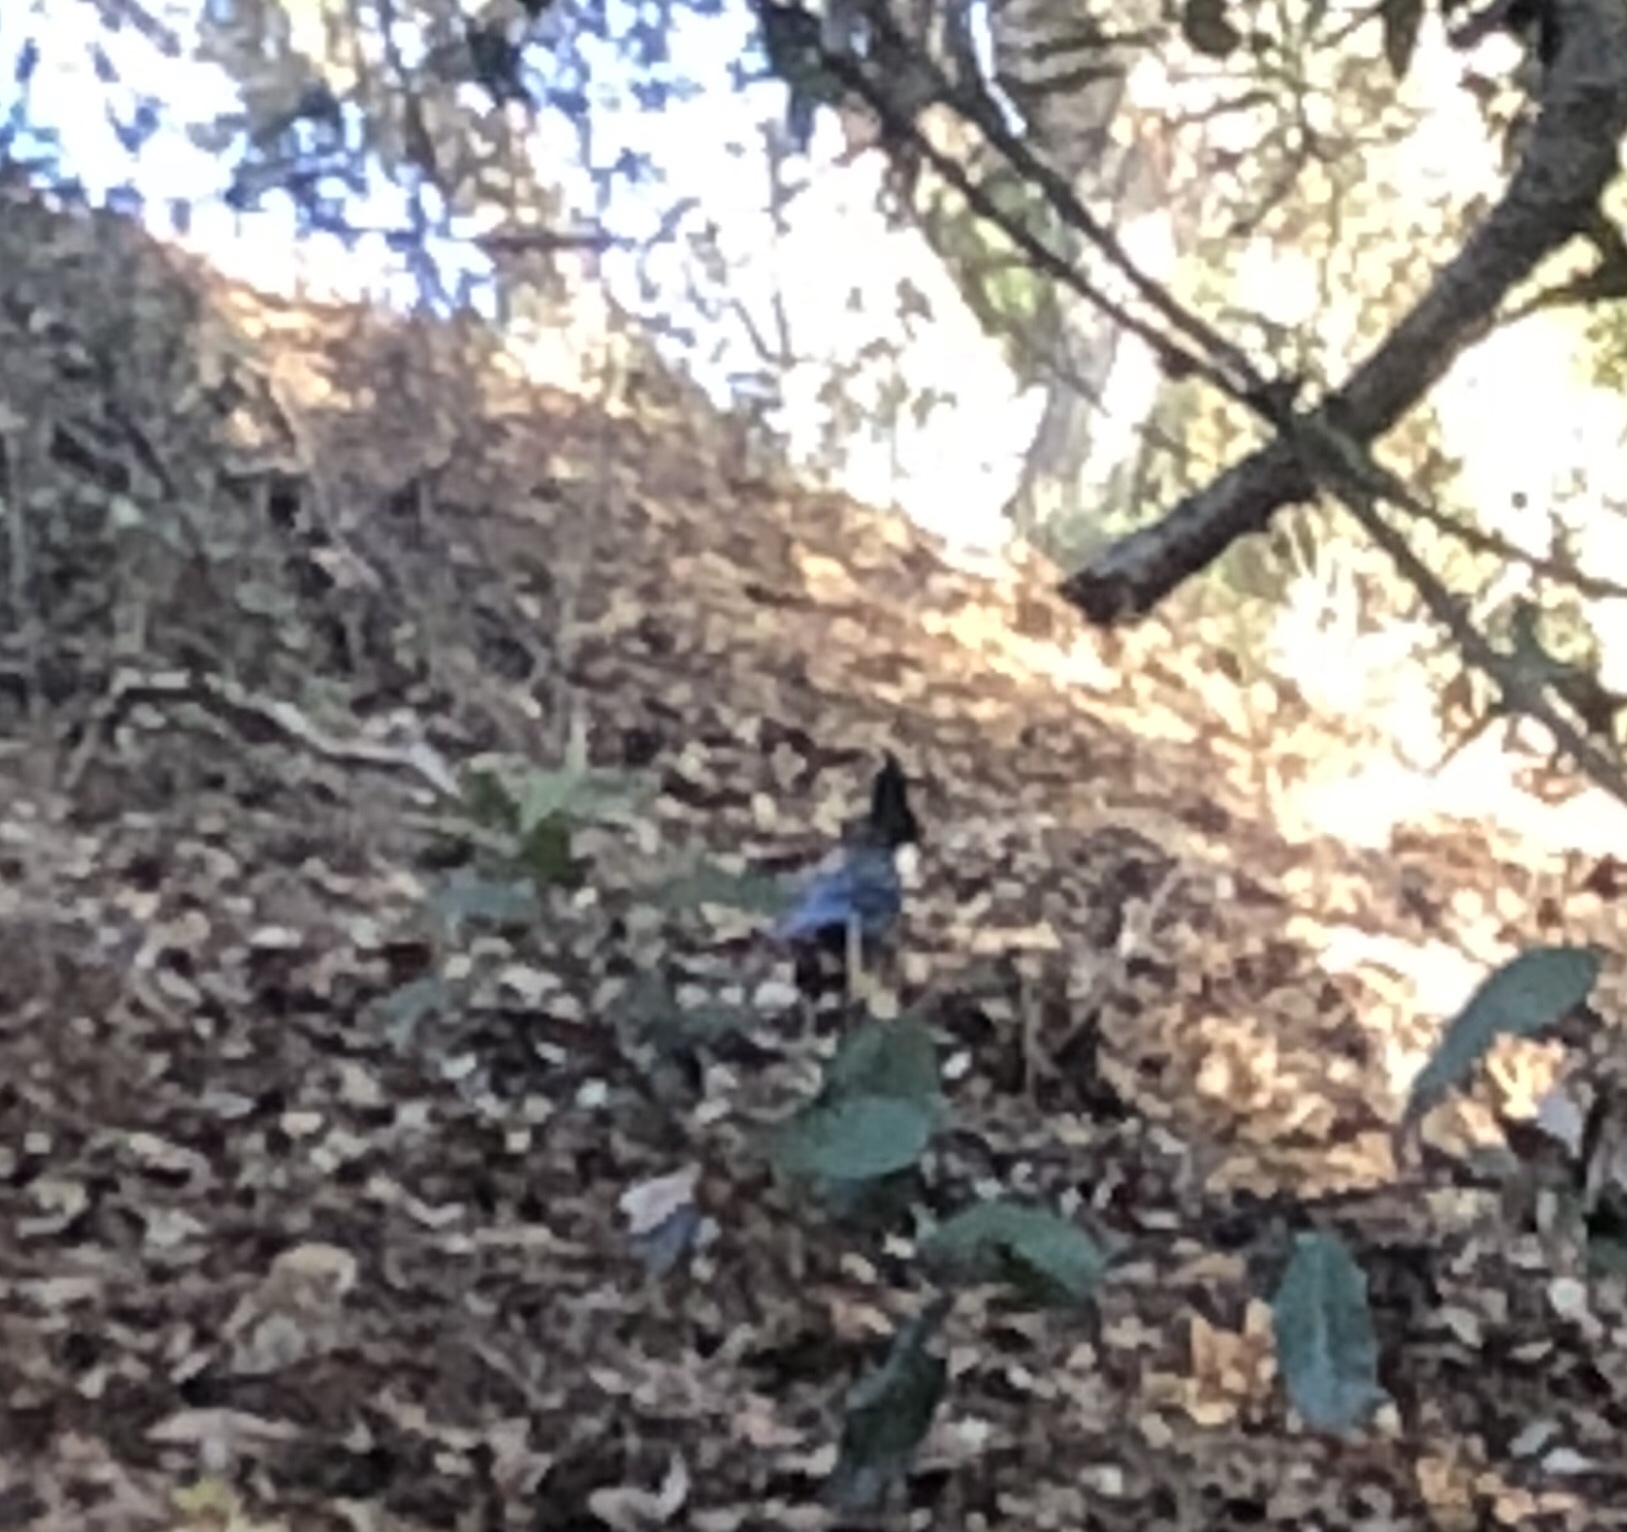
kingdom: Animalia
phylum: Chordata
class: Aves
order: Passeriformes
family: Corvidae
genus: Cyanocitta
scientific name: Cyanocitta stelleri
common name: Steller's jay
